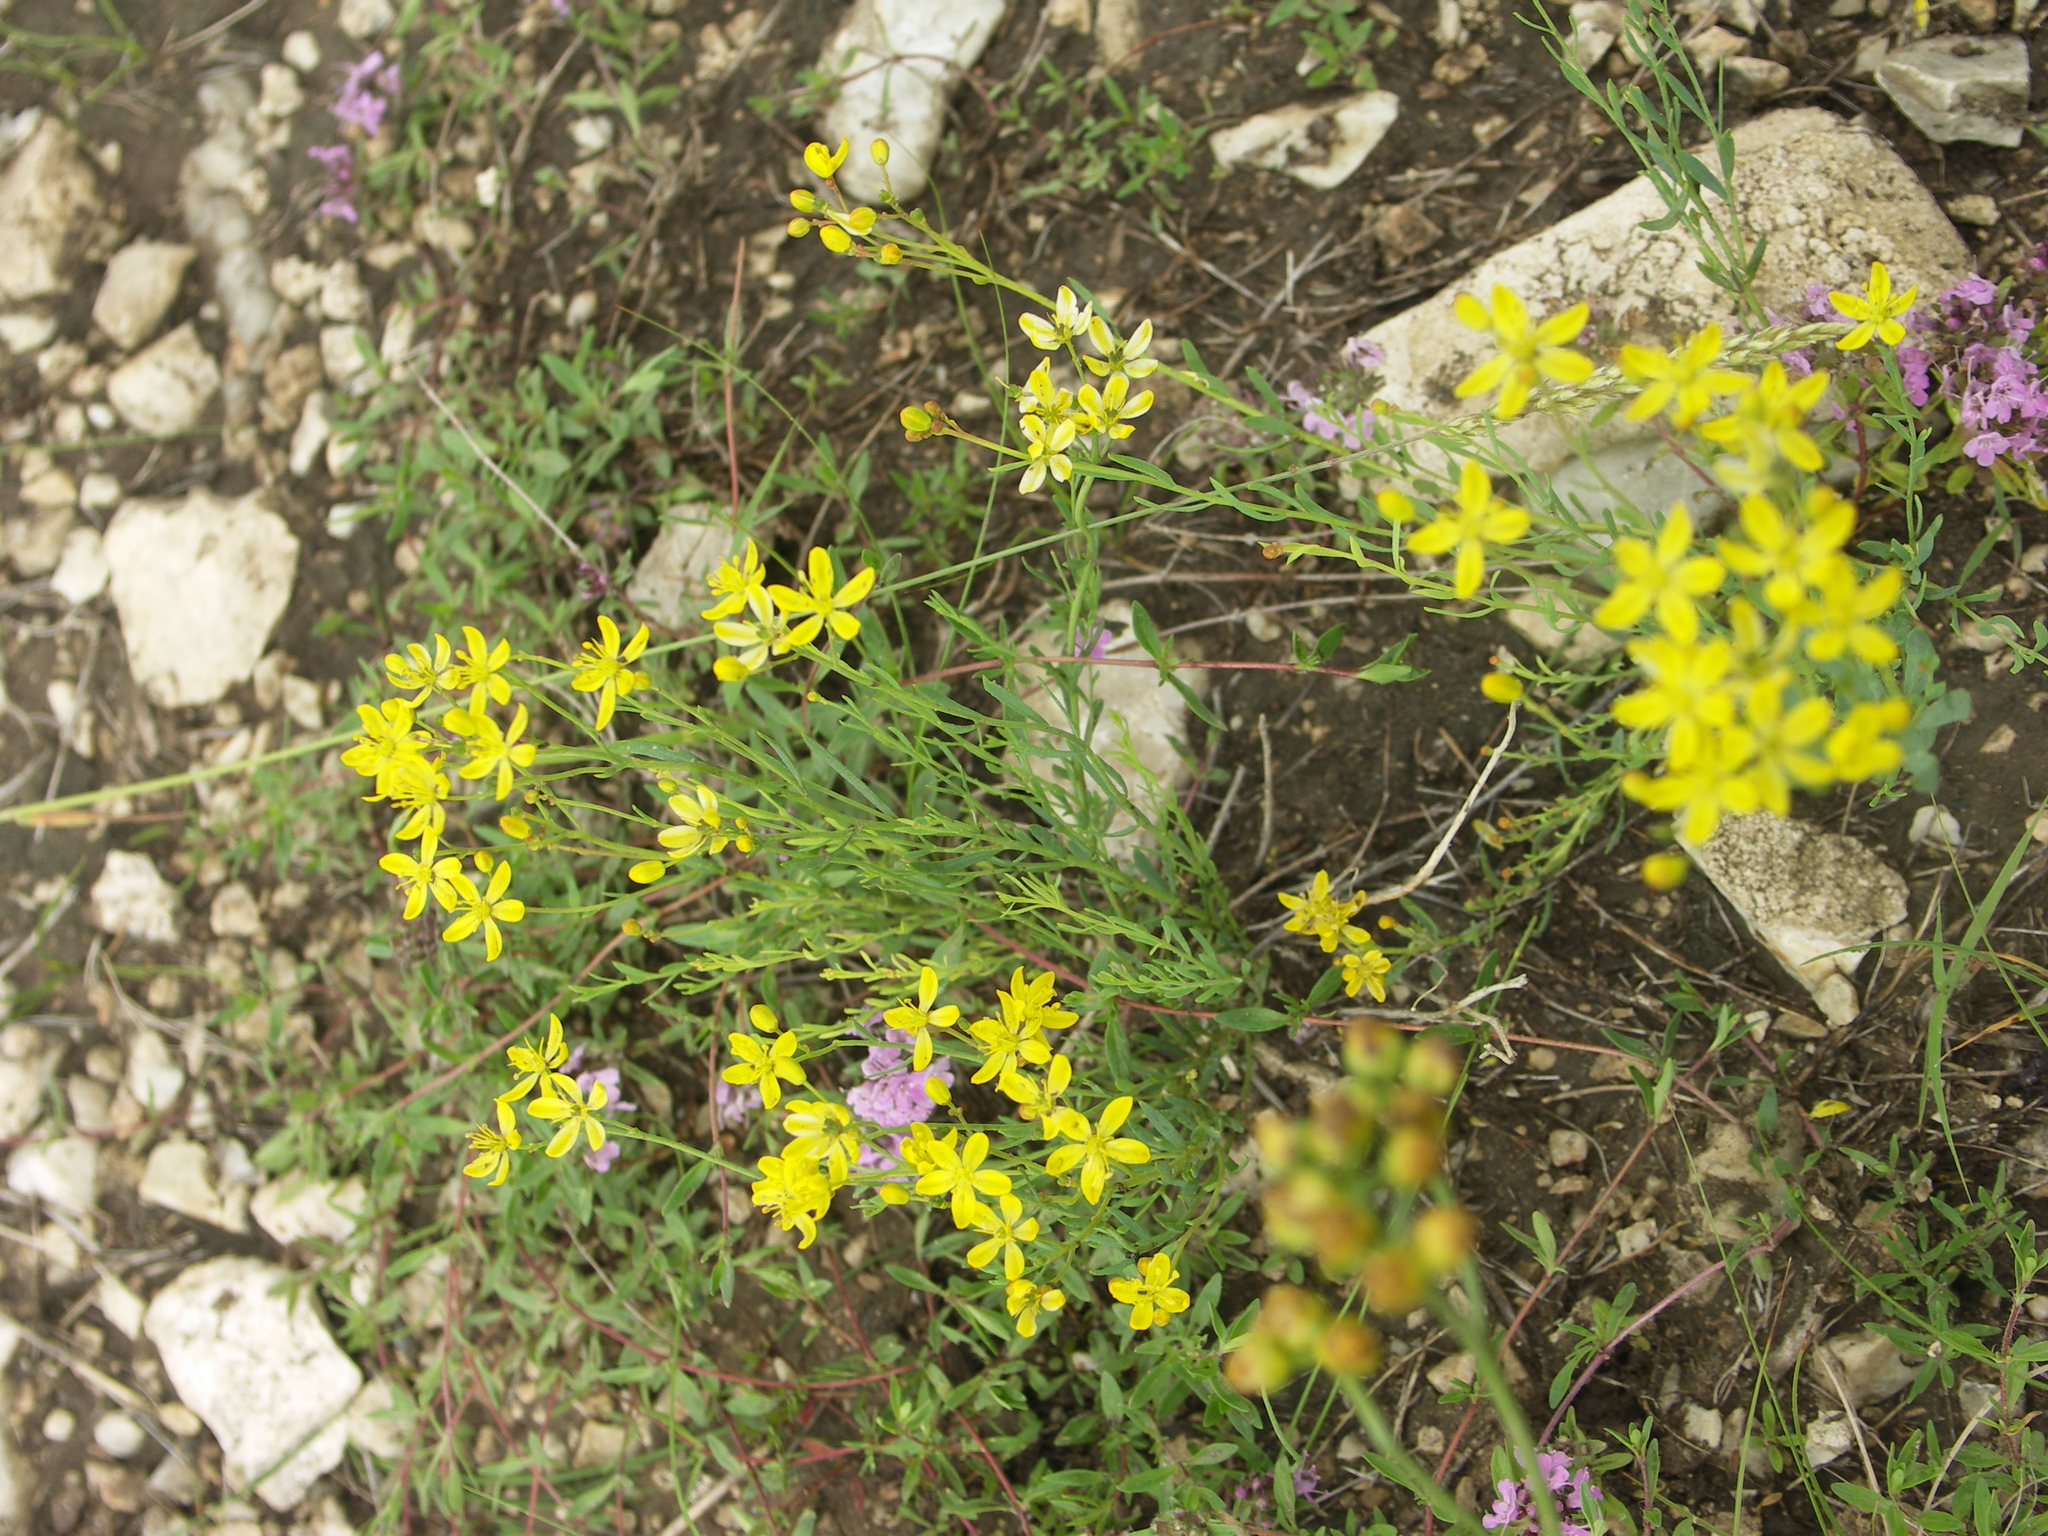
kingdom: Plantae
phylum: Tracheophyta
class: Magnoliopsida
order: Sapindales
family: Rutaceae
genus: Haplophyllum
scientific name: Haplophyllum dauricum
